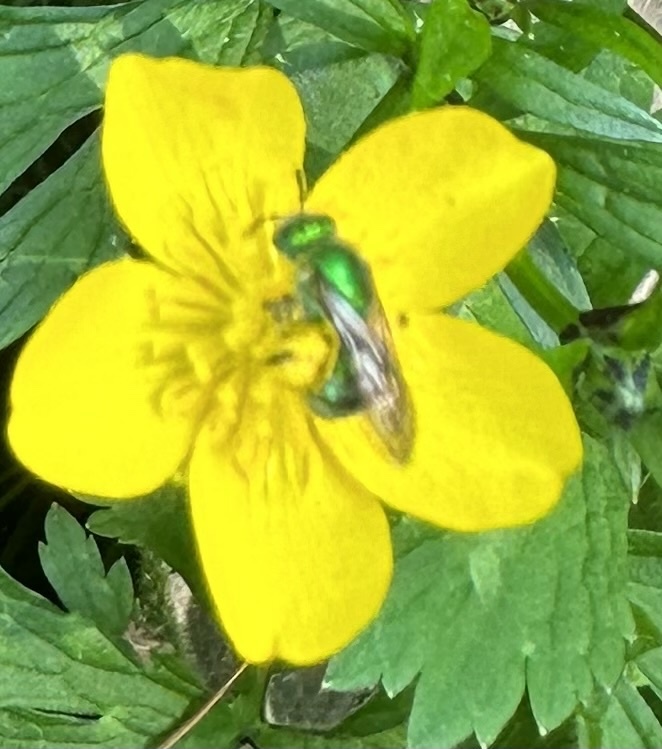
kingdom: Animalia
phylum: Arthropoda
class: Insecta
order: Hymenoptera
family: Halictidae
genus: Agapostemon
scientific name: Agapostemon texanus
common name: Texas striped sweat bee
